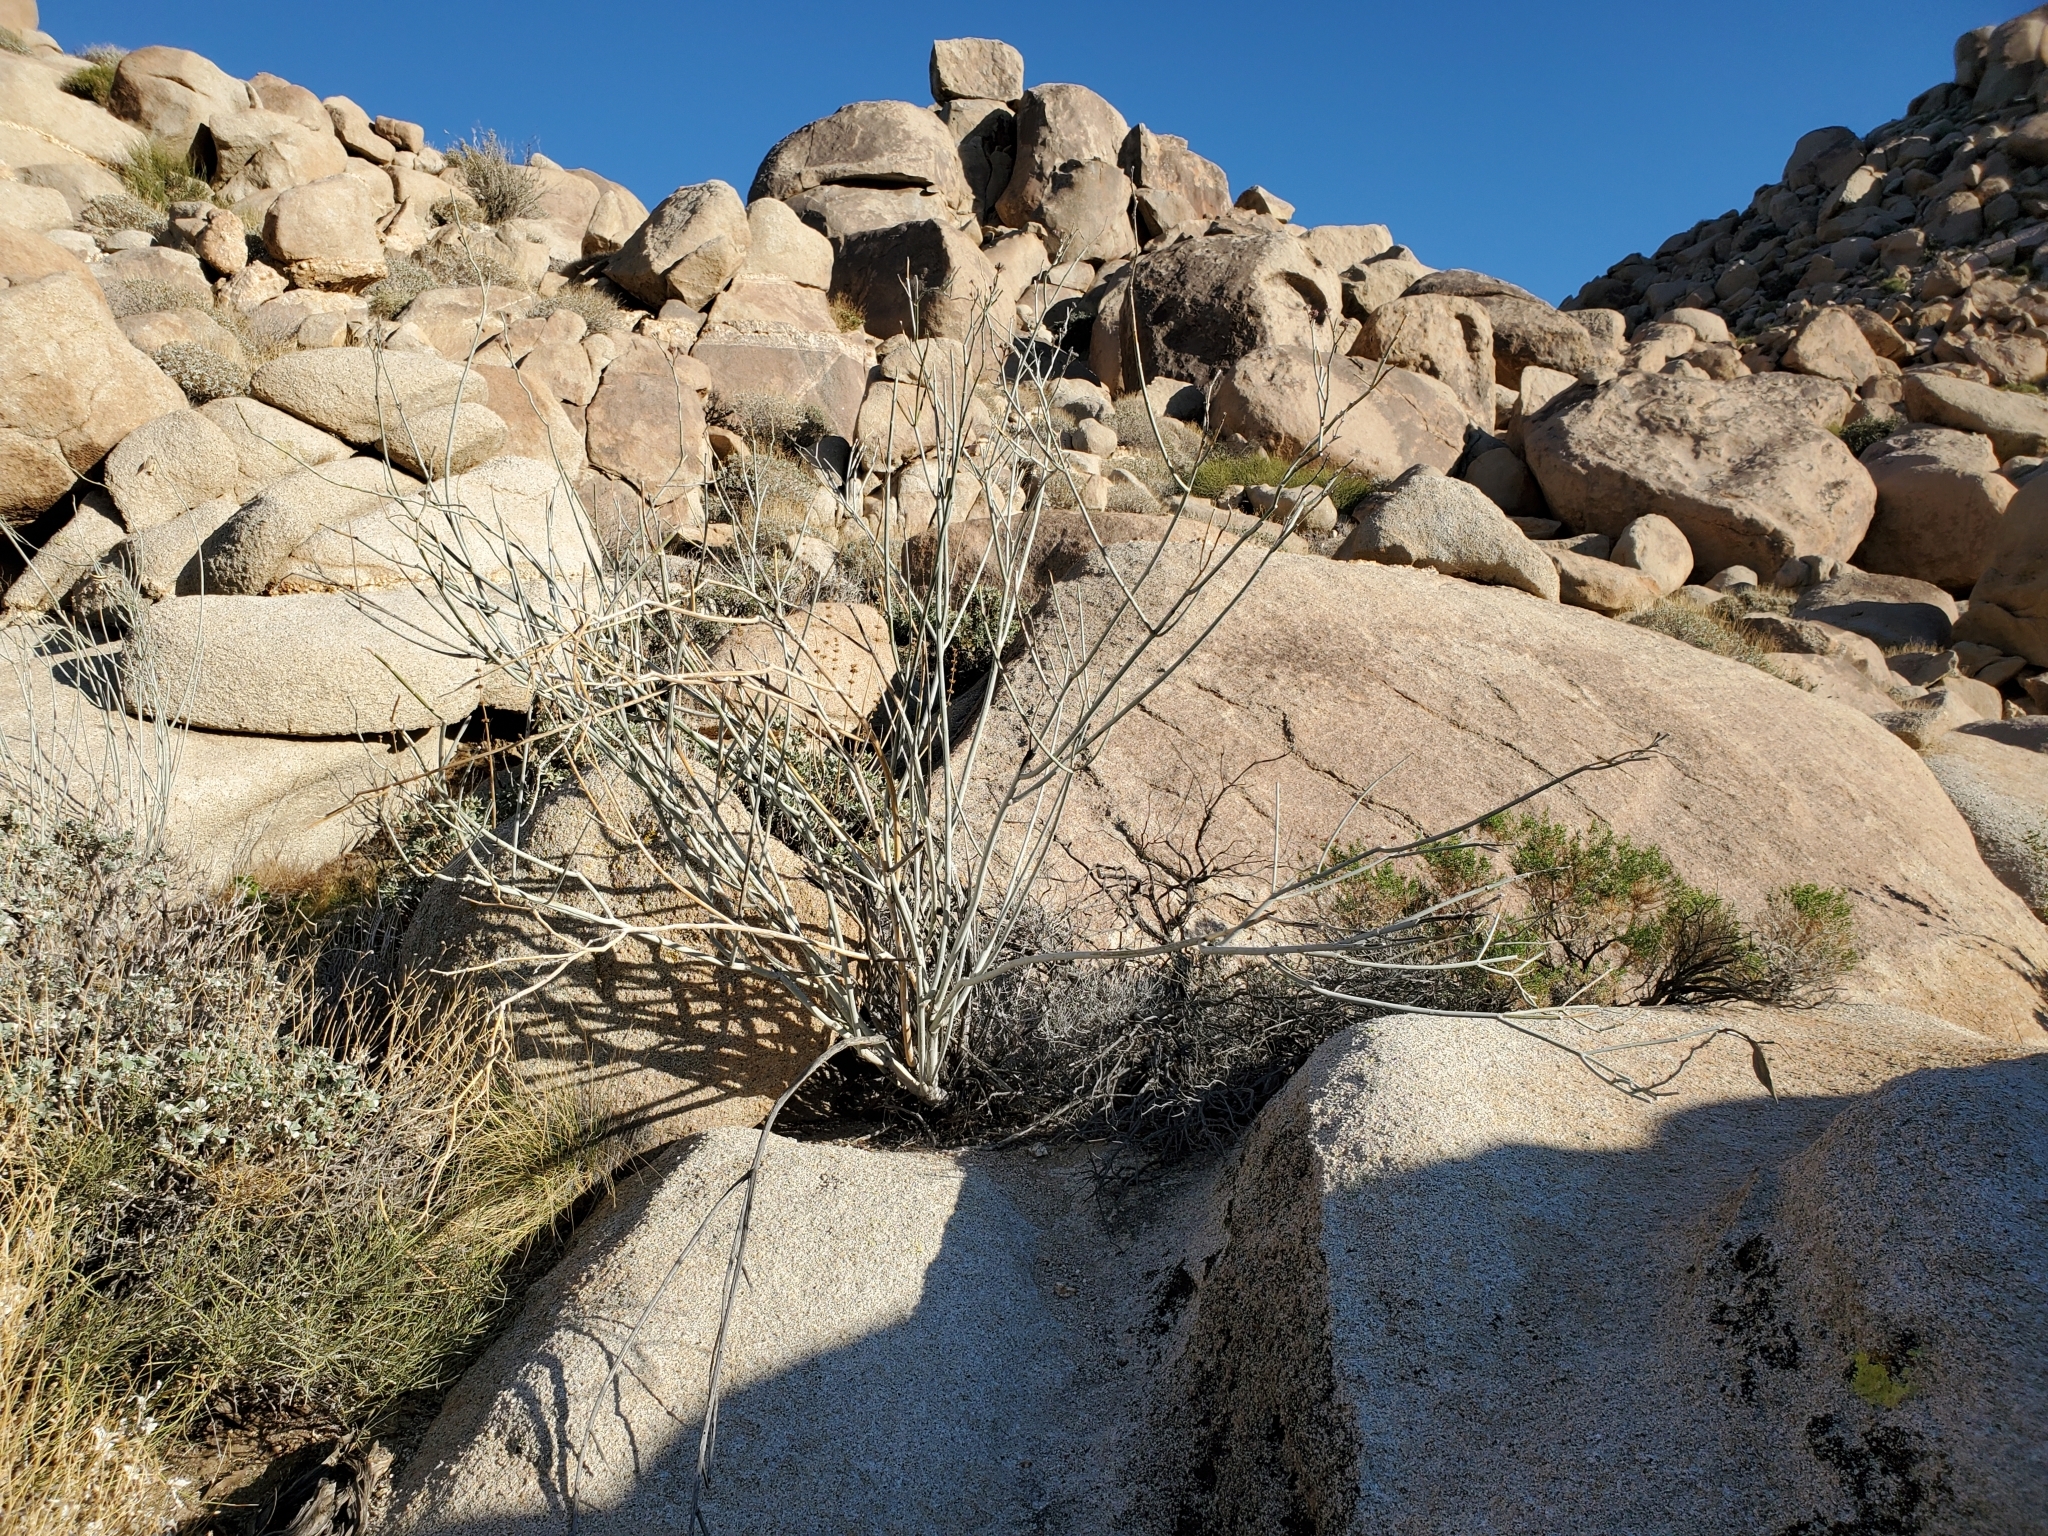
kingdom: Plantae
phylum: Tracheophyta
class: Magnoliopsida
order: Gentianales
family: Apocynaceae
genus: Asclepias
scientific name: Asclepias albicans
